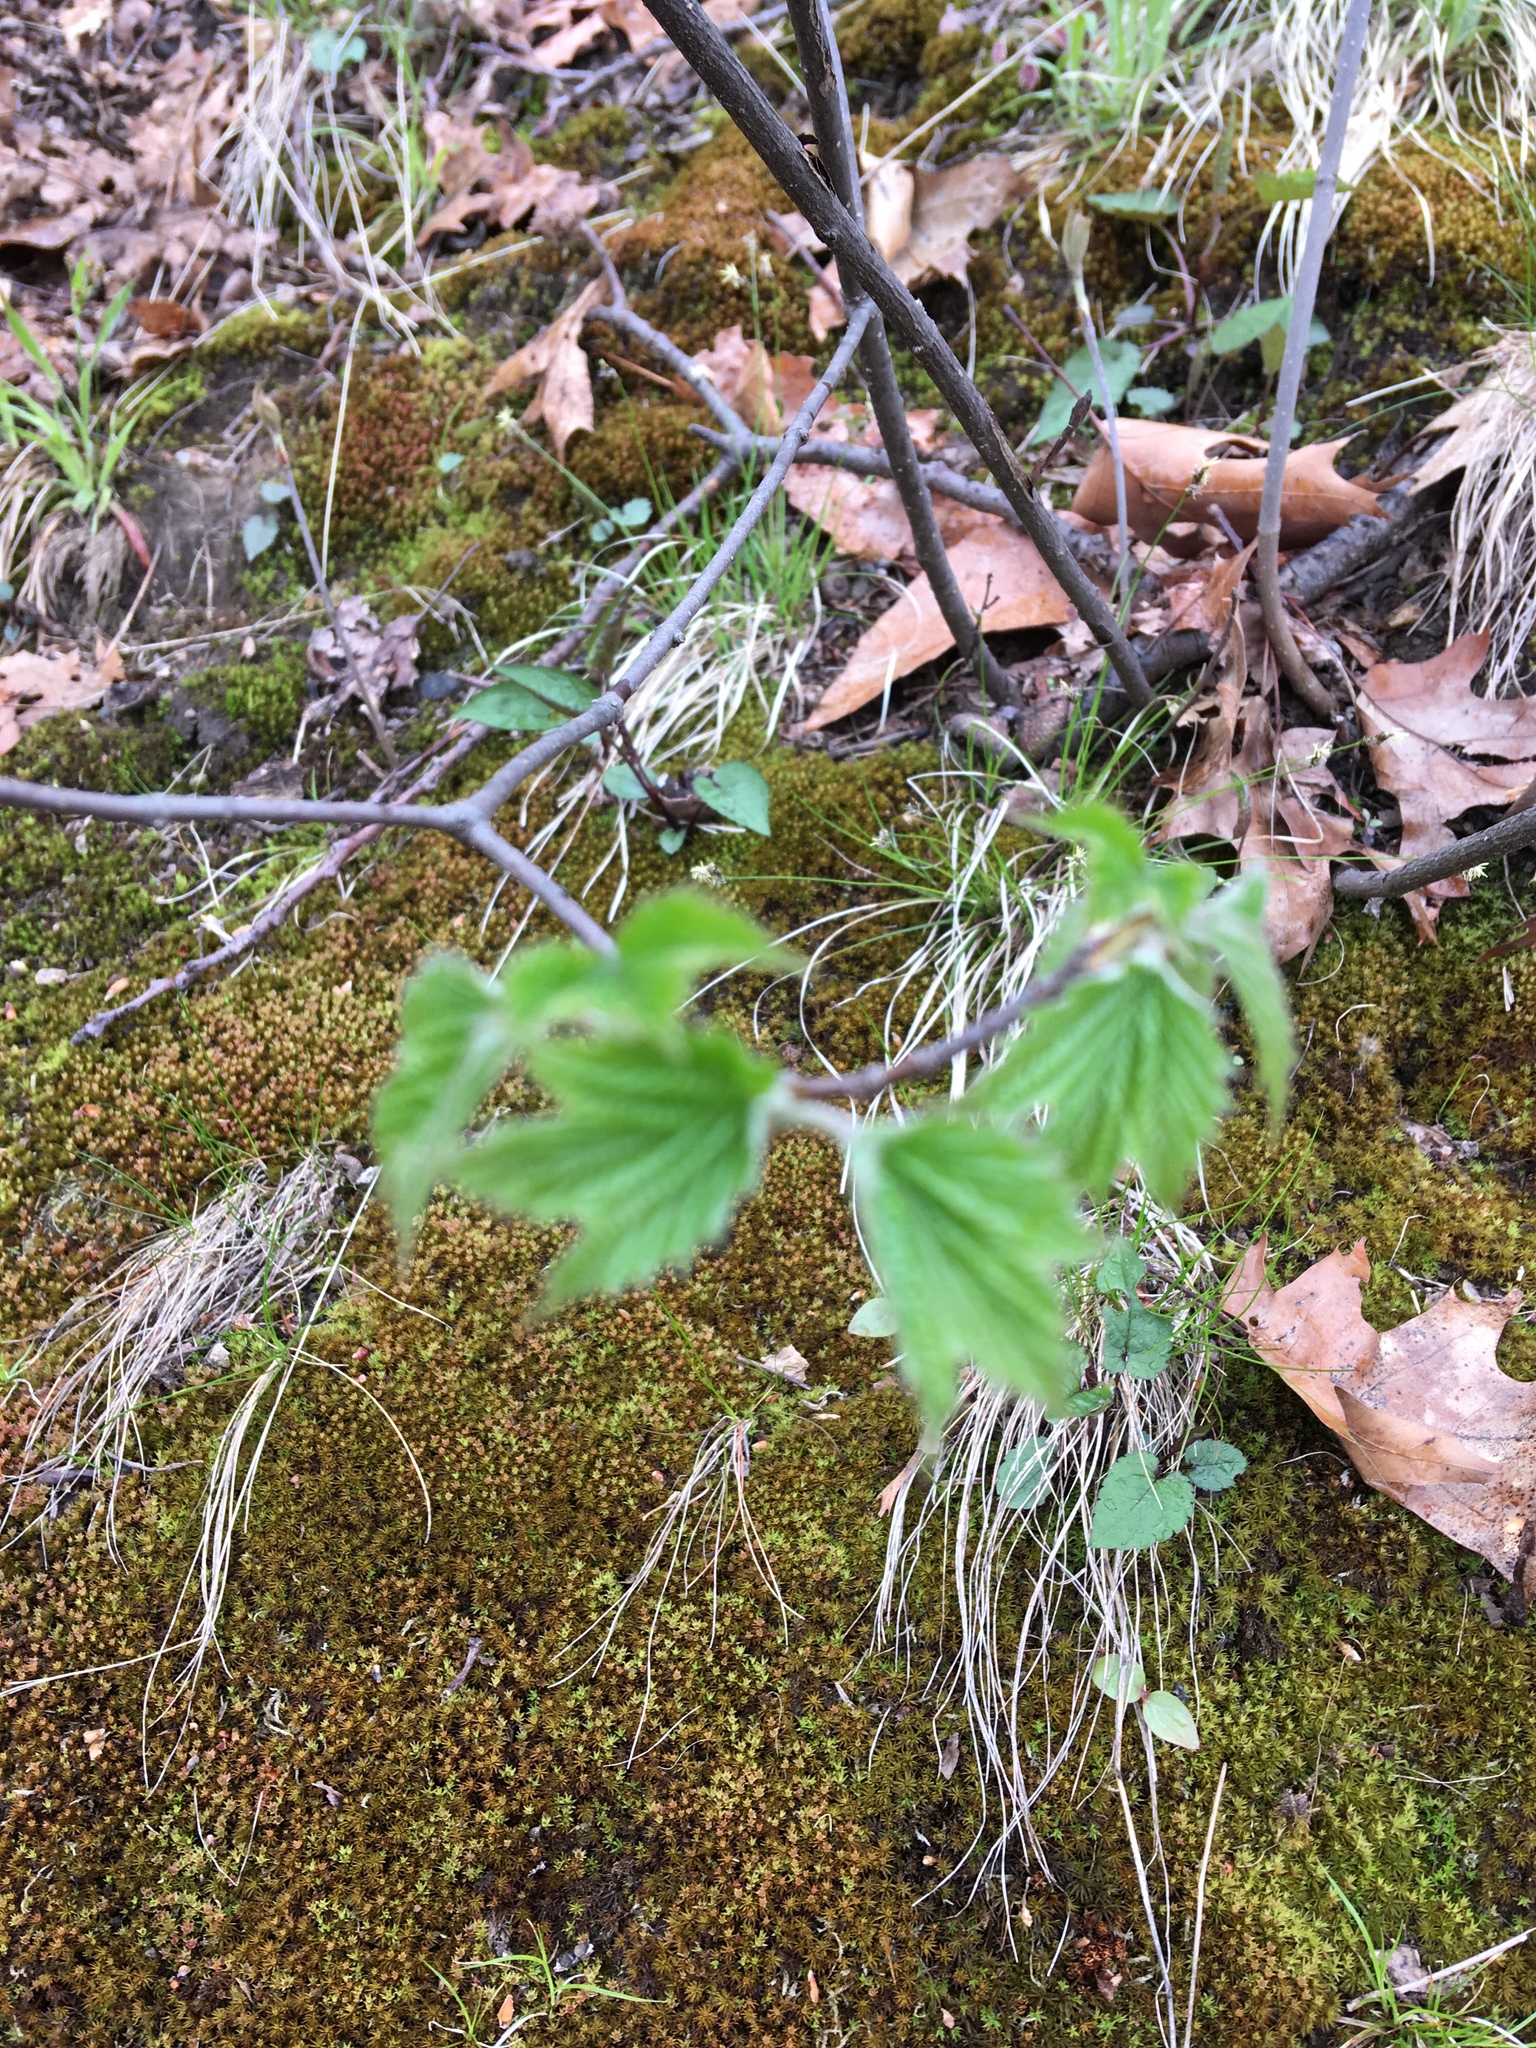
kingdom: Plantae
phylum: Tracheophyta
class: Magnoliopsida
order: Dipsacales
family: Viburnaceae
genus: Viburnum
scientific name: Viburnum acerifolium
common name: Dockmackie
